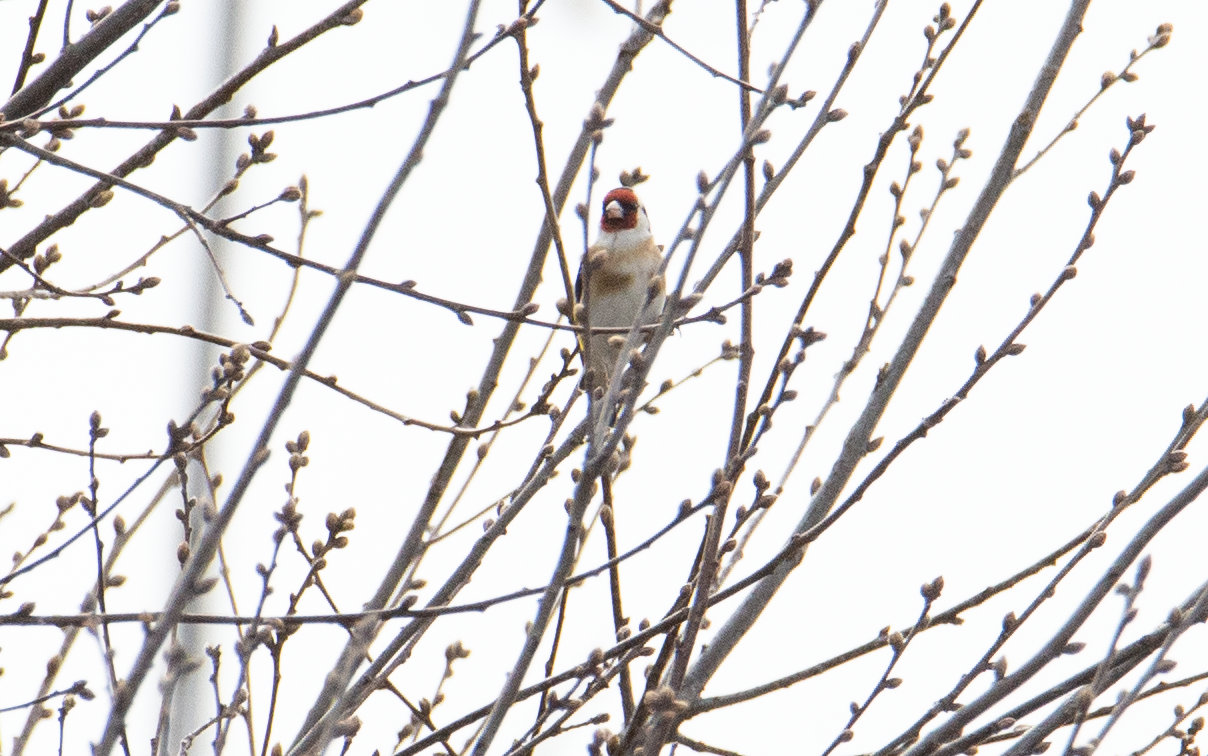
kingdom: Animalia
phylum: Chordata
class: Aves
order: Passeriformes
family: Fringillidae
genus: Carduelis
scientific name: Carduelis carduelis
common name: European goldfinch
